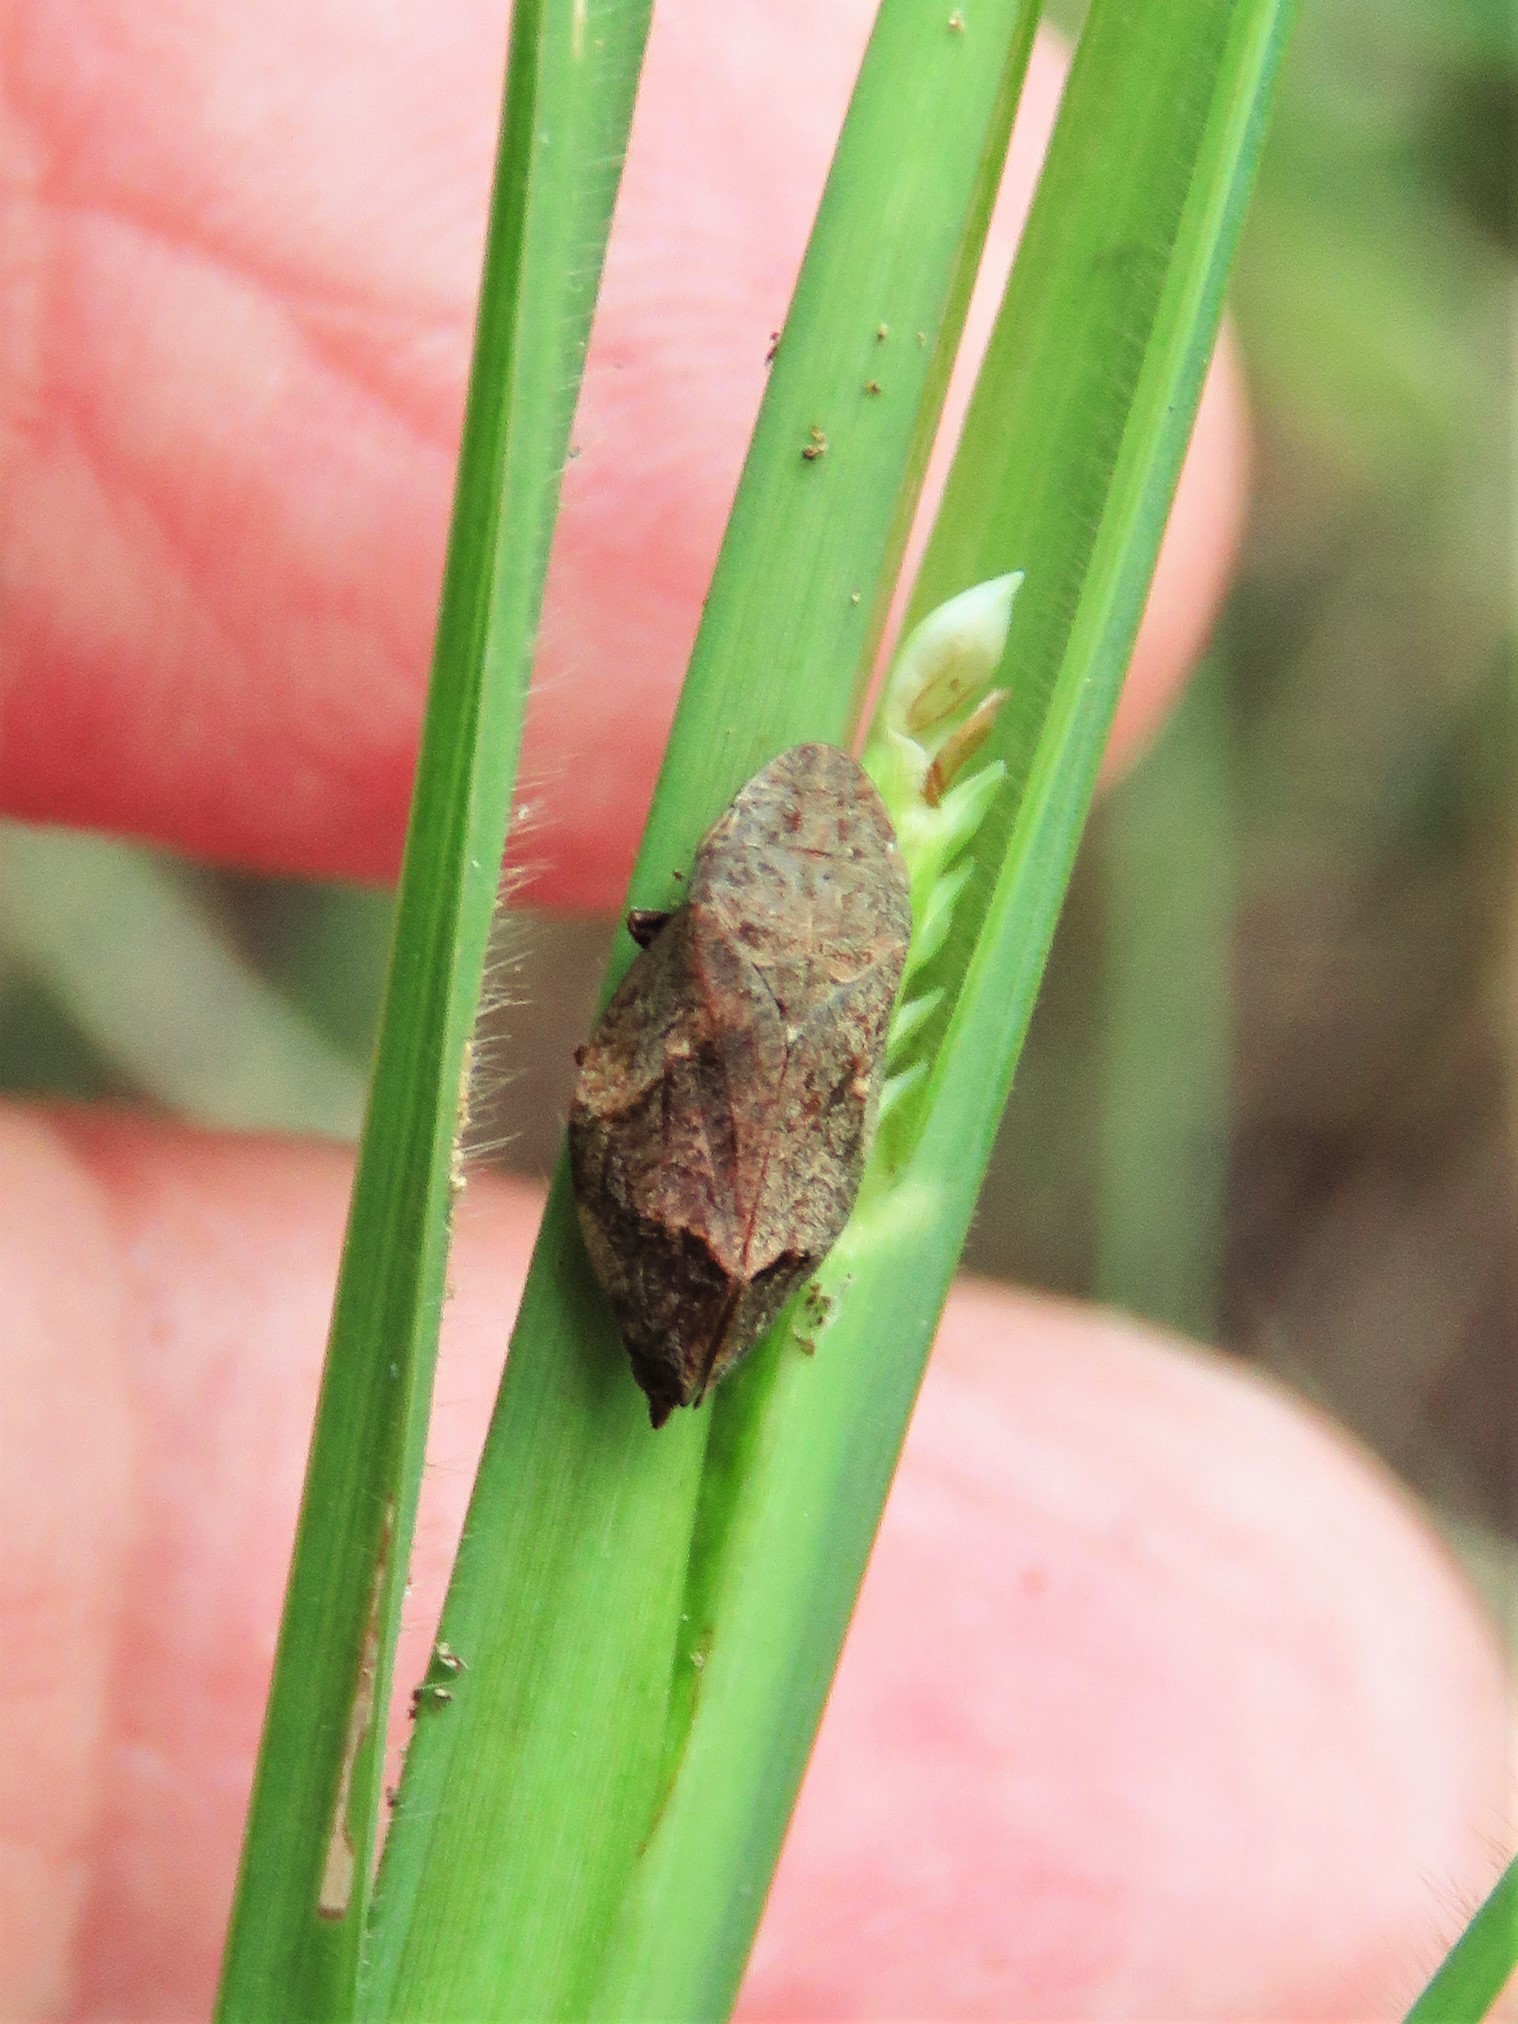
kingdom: Animalia
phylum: Arthropoda
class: Insecta
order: Hemiptera
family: Aphrophoridae
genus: Lepyronia
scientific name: Lepyronia quadrangularis
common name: Diamond-backed spittlebug
